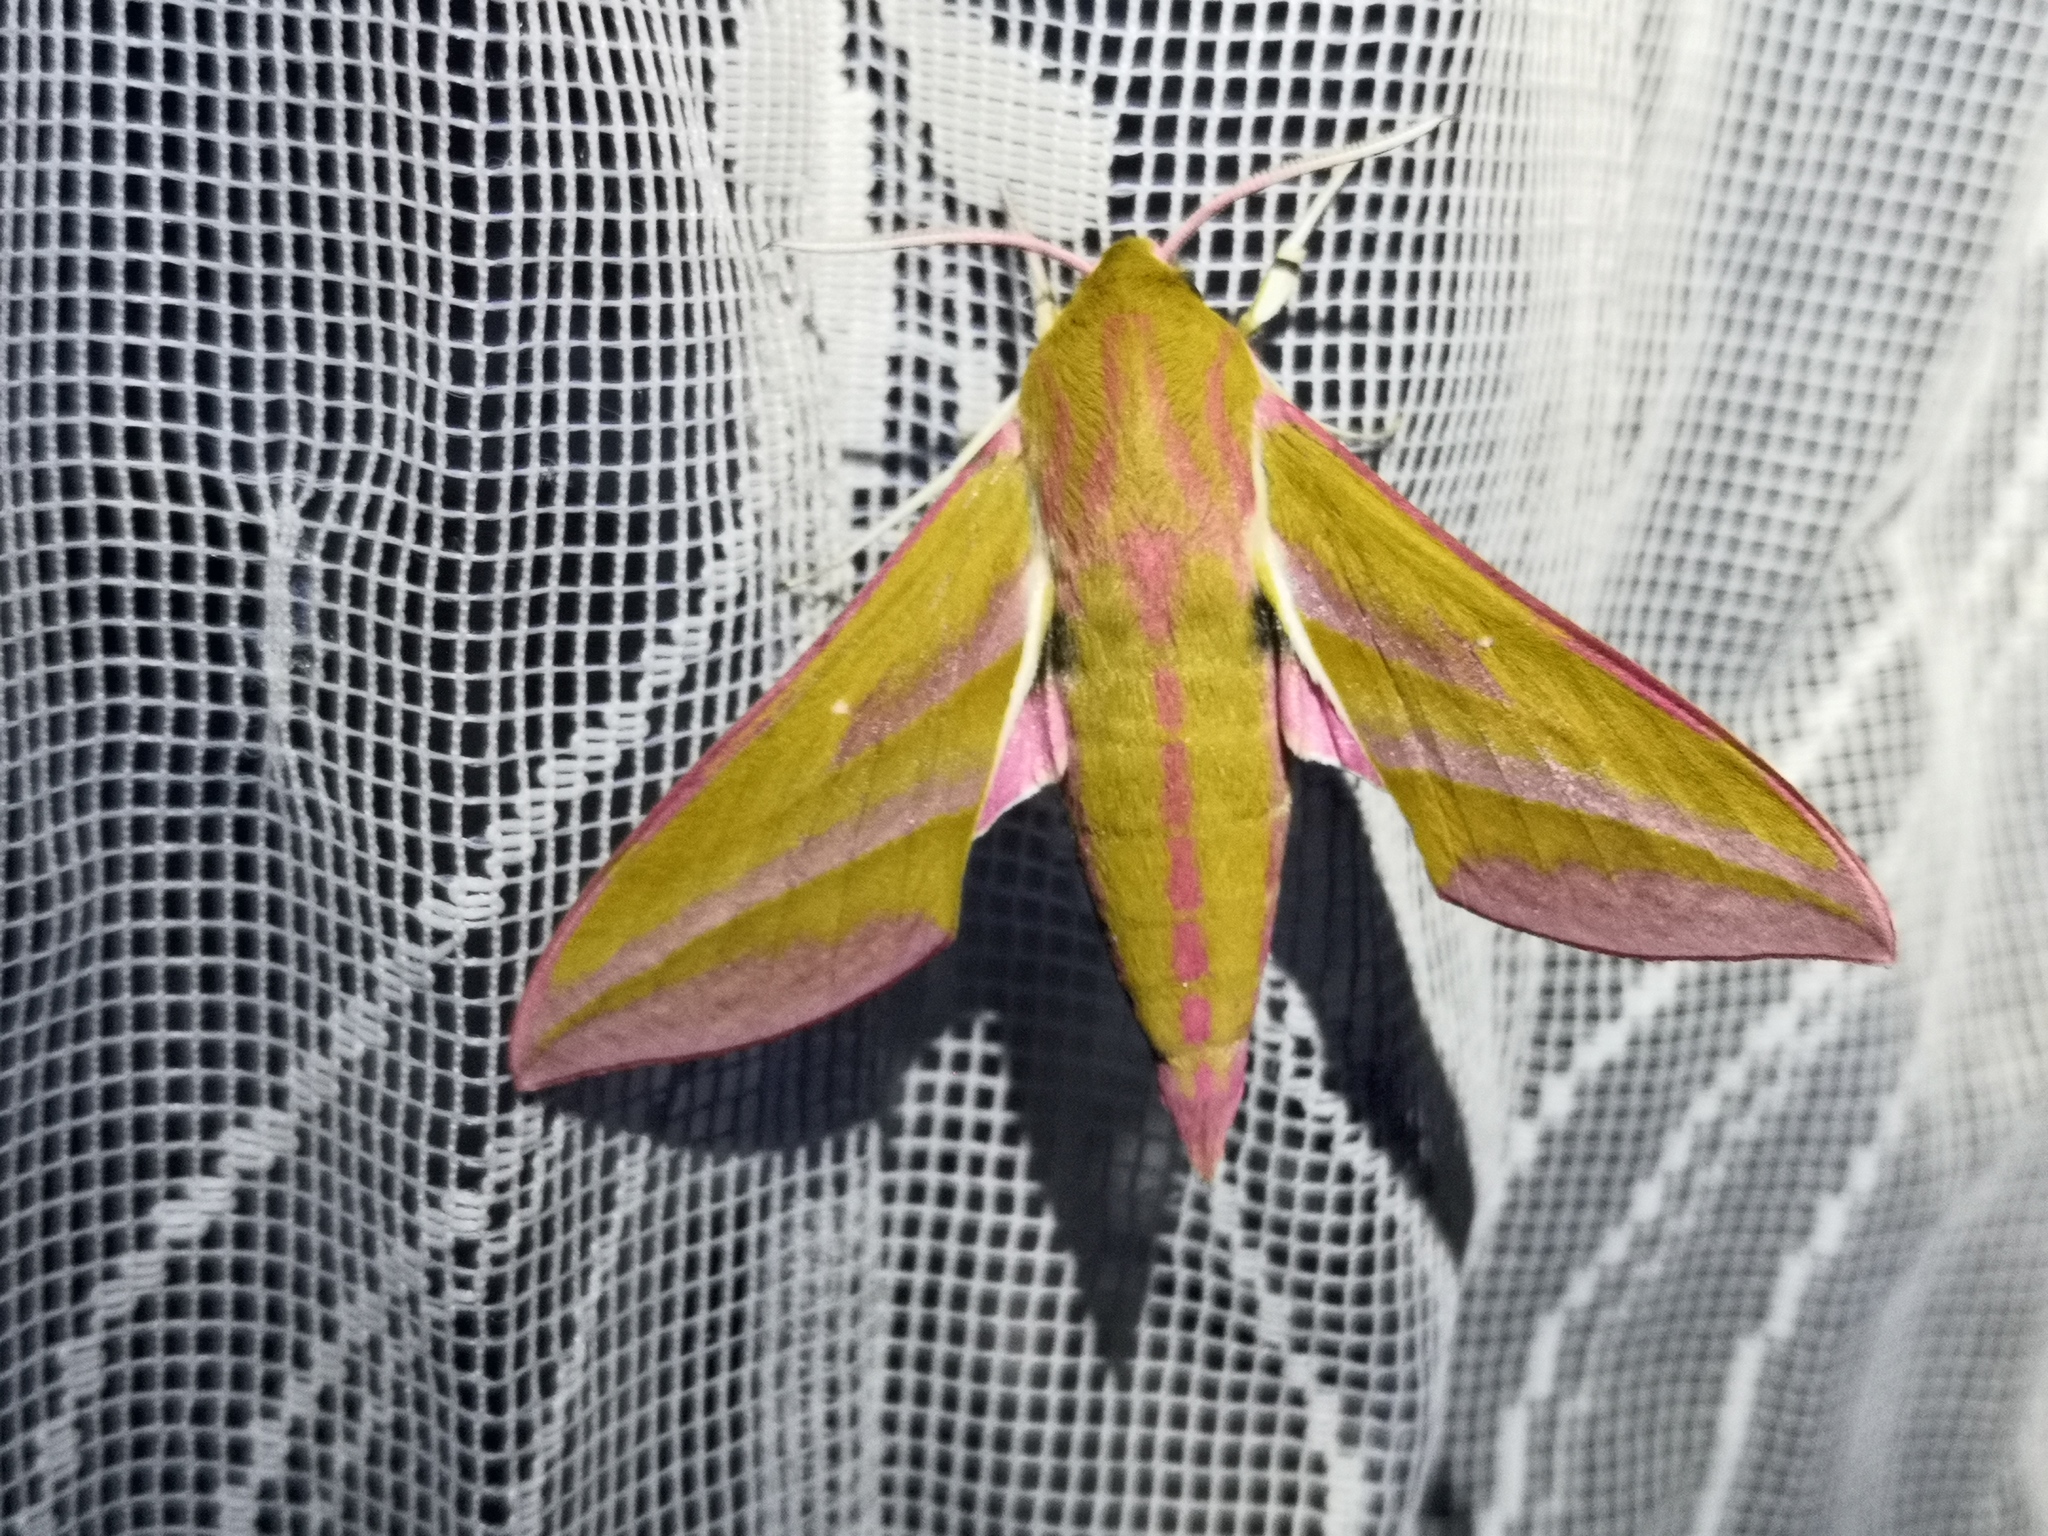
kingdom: Animalia
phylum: Arthropoda
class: Insecta
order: Lepidoptera
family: Sphingidae
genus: Deilephila
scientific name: Deilephila elpenor
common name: Elephant hawk-moth
